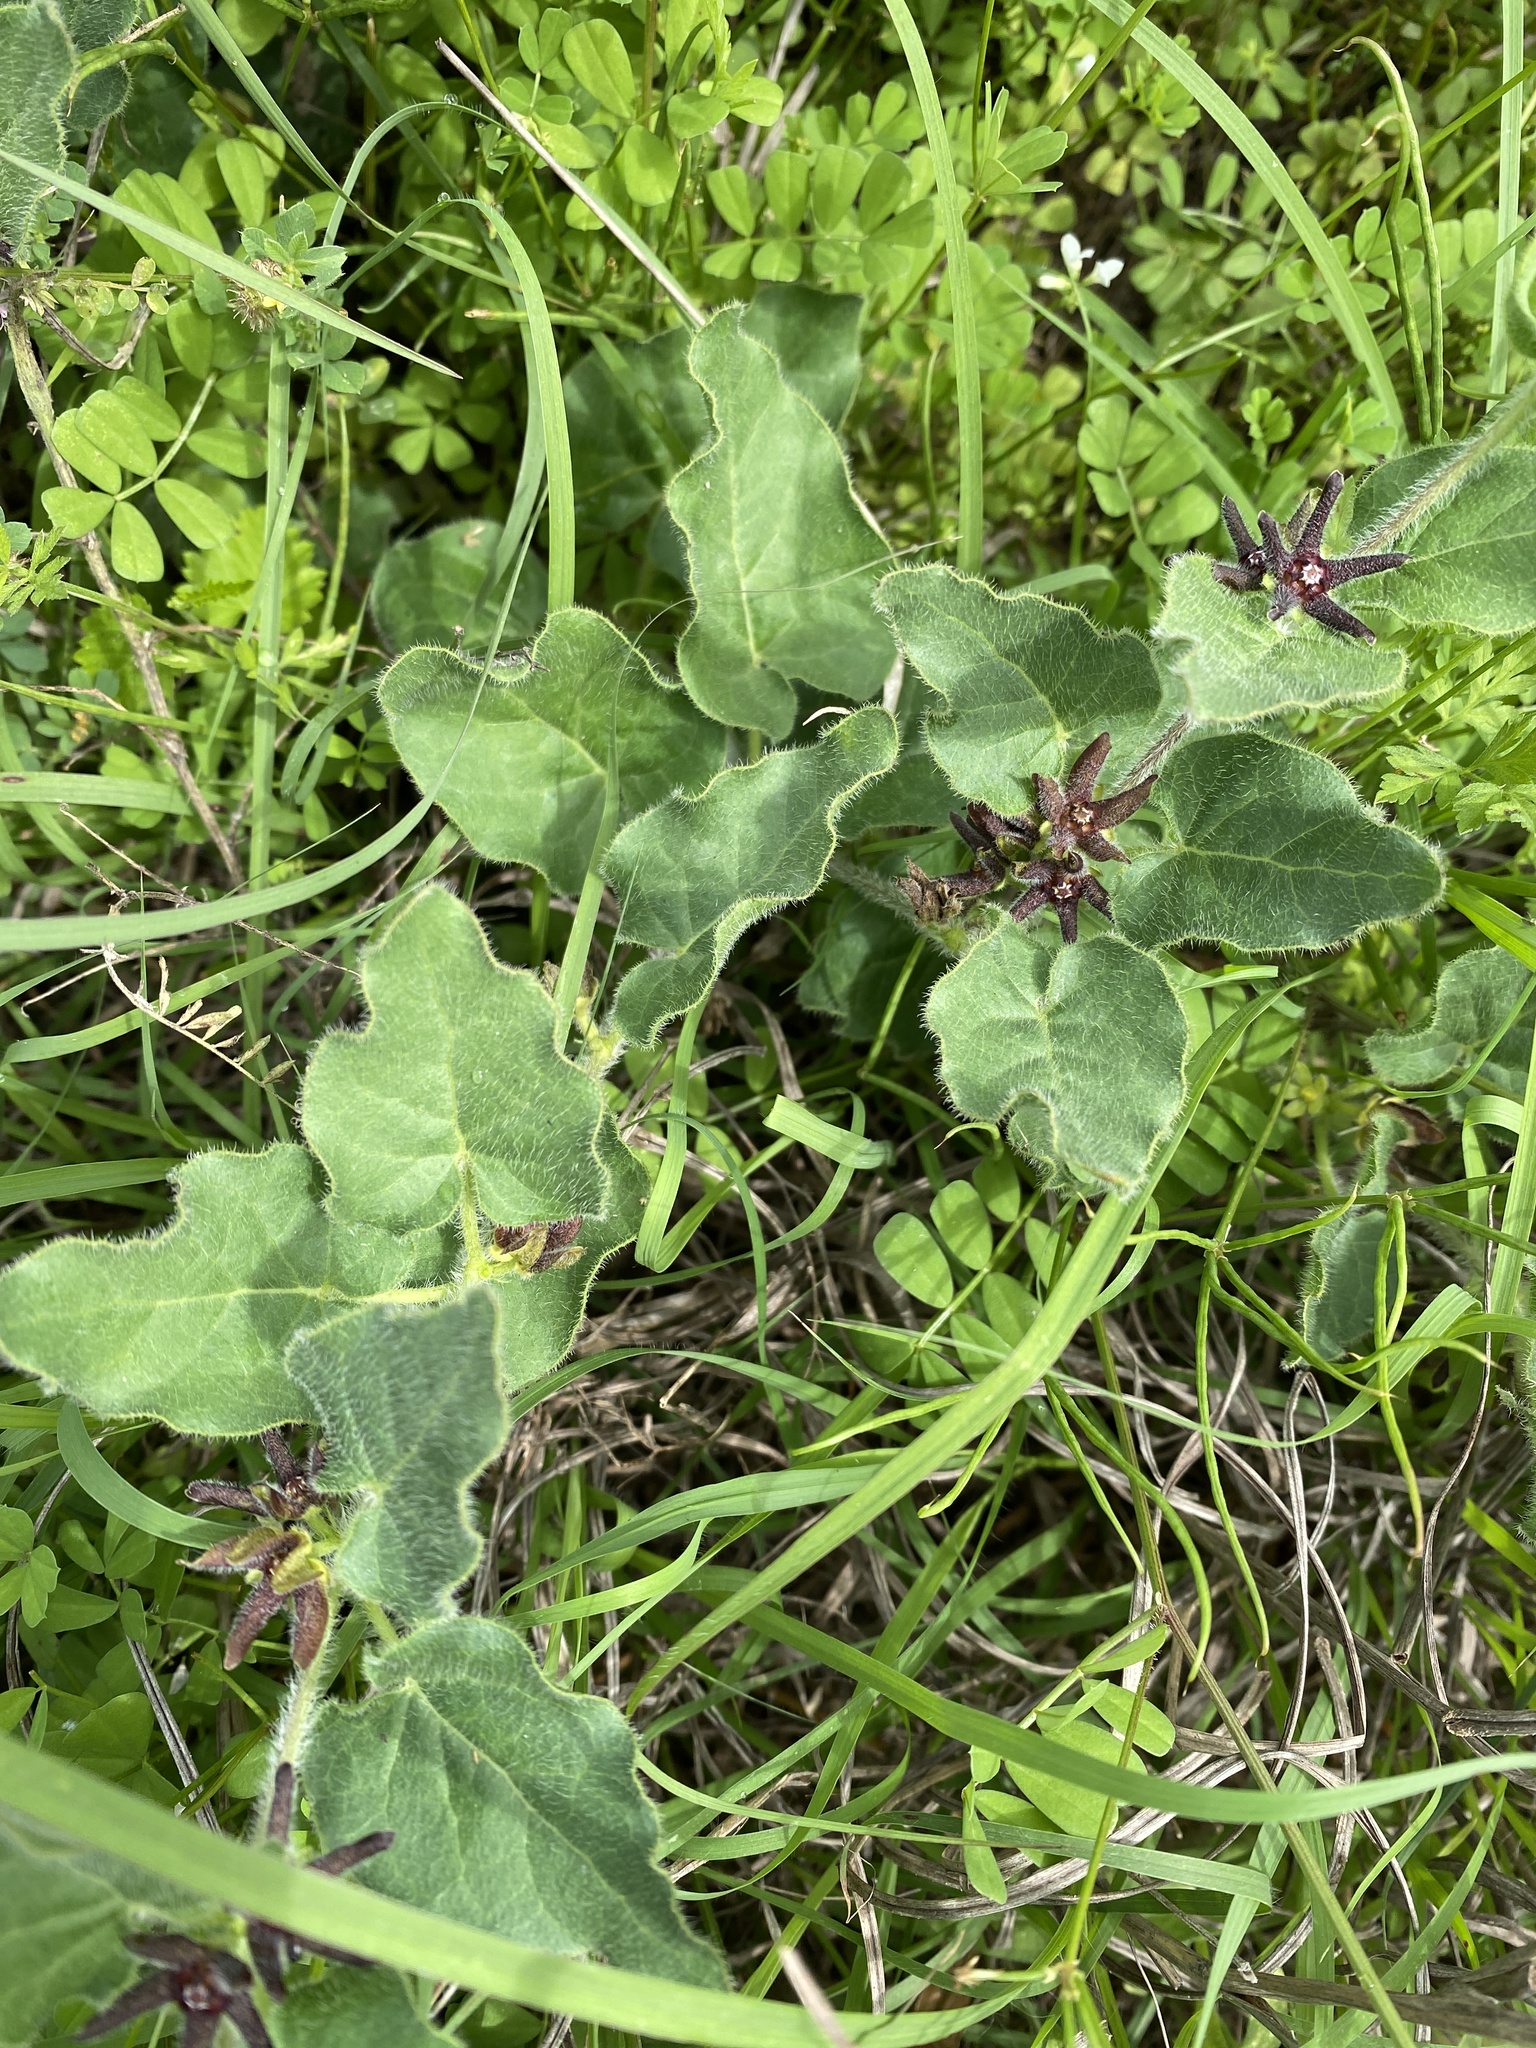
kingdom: Plantae
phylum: Tracheophyta
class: Magnoliopsida
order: Gentianales
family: Apocynaceae
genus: Chthamalia
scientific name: Chthamalia biflora
